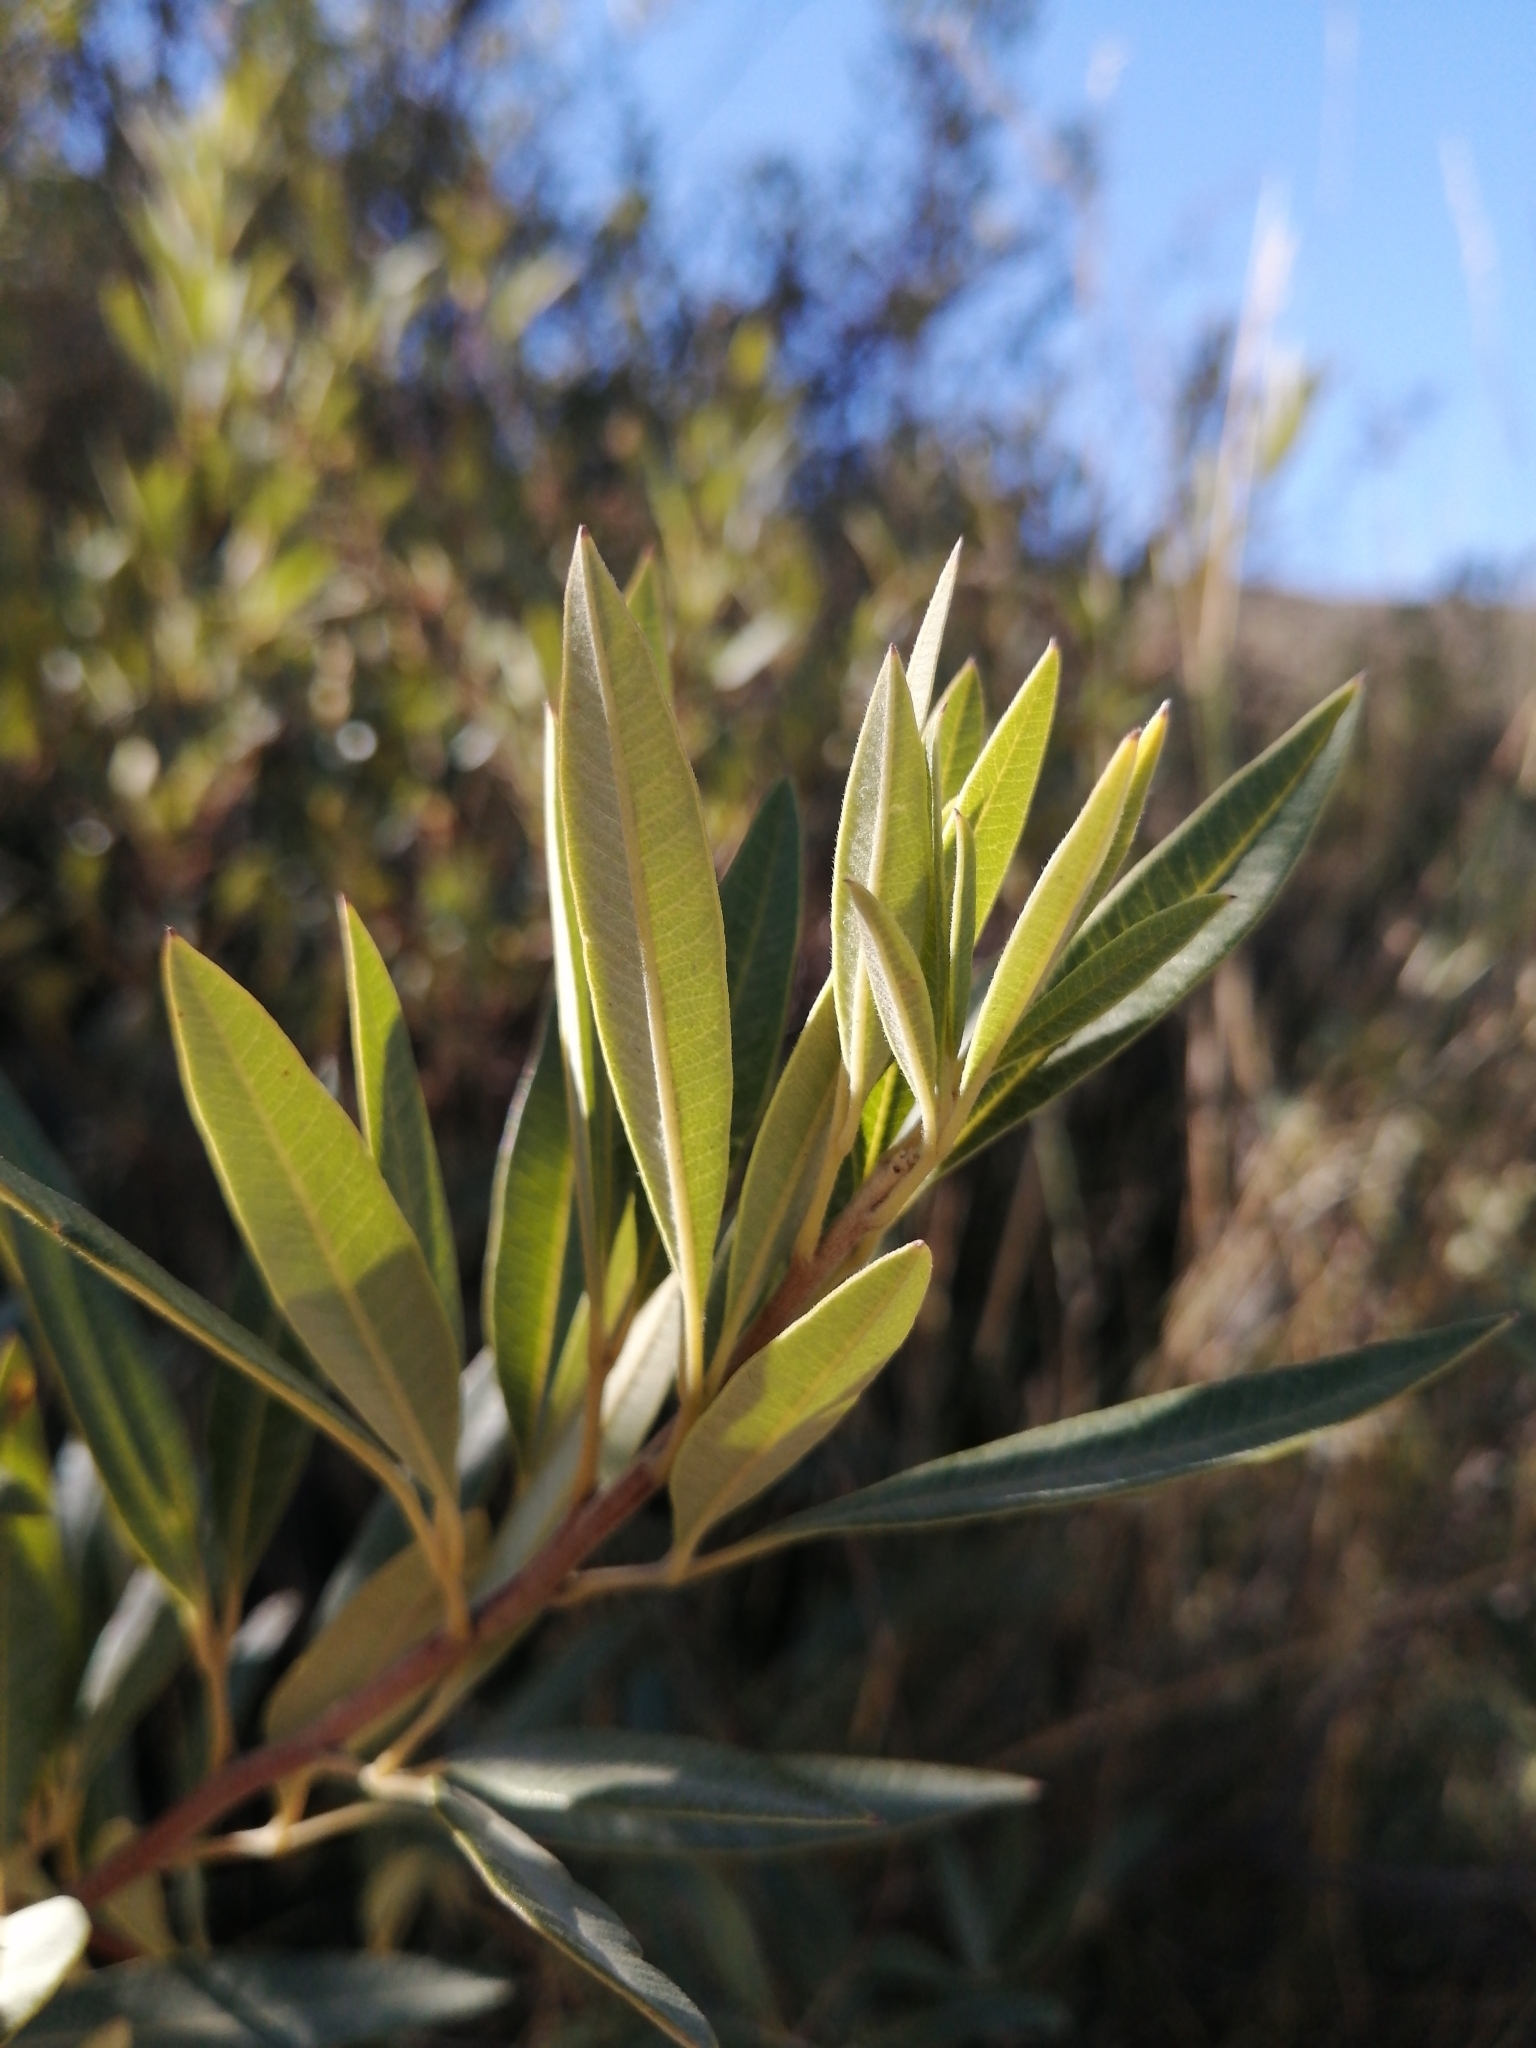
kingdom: Plantae
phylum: Tracheophyta
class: Magnoliopsida
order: Sapindales
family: Anacardiaceae
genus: Searsia
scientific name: Searsia angustifolia
